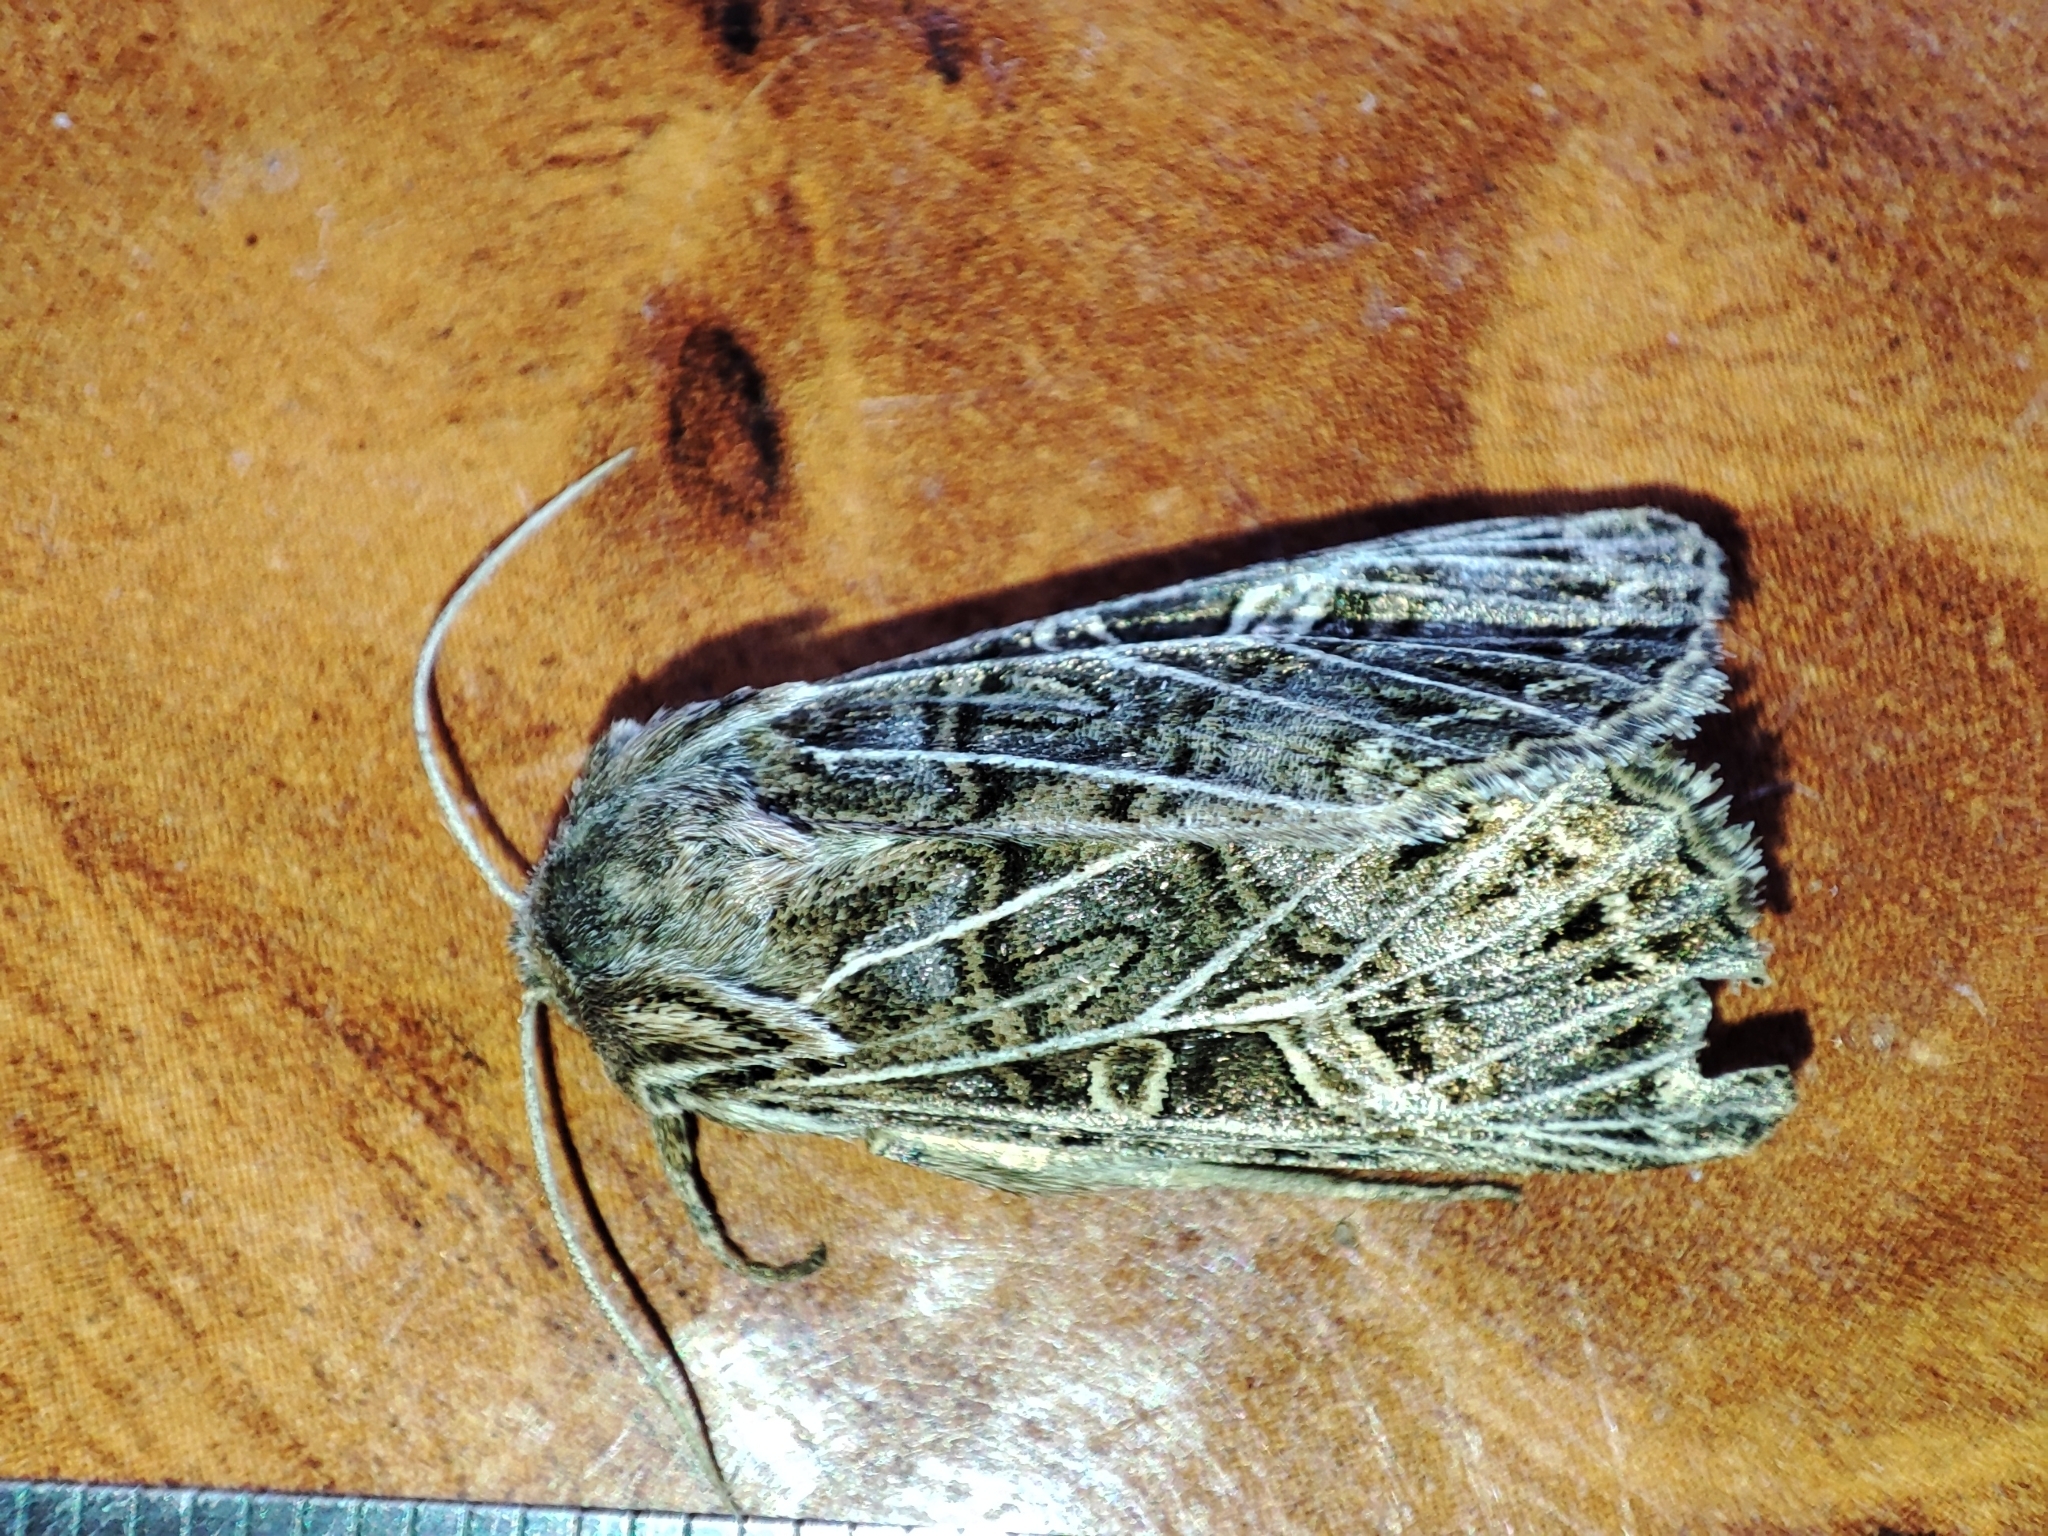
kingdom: Animalia
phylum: Arthropoda
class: Insecta
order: Lepidoptera
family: Noctuidae
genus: Tholera
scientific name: Tholera decimalis
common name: Feathered gothic
